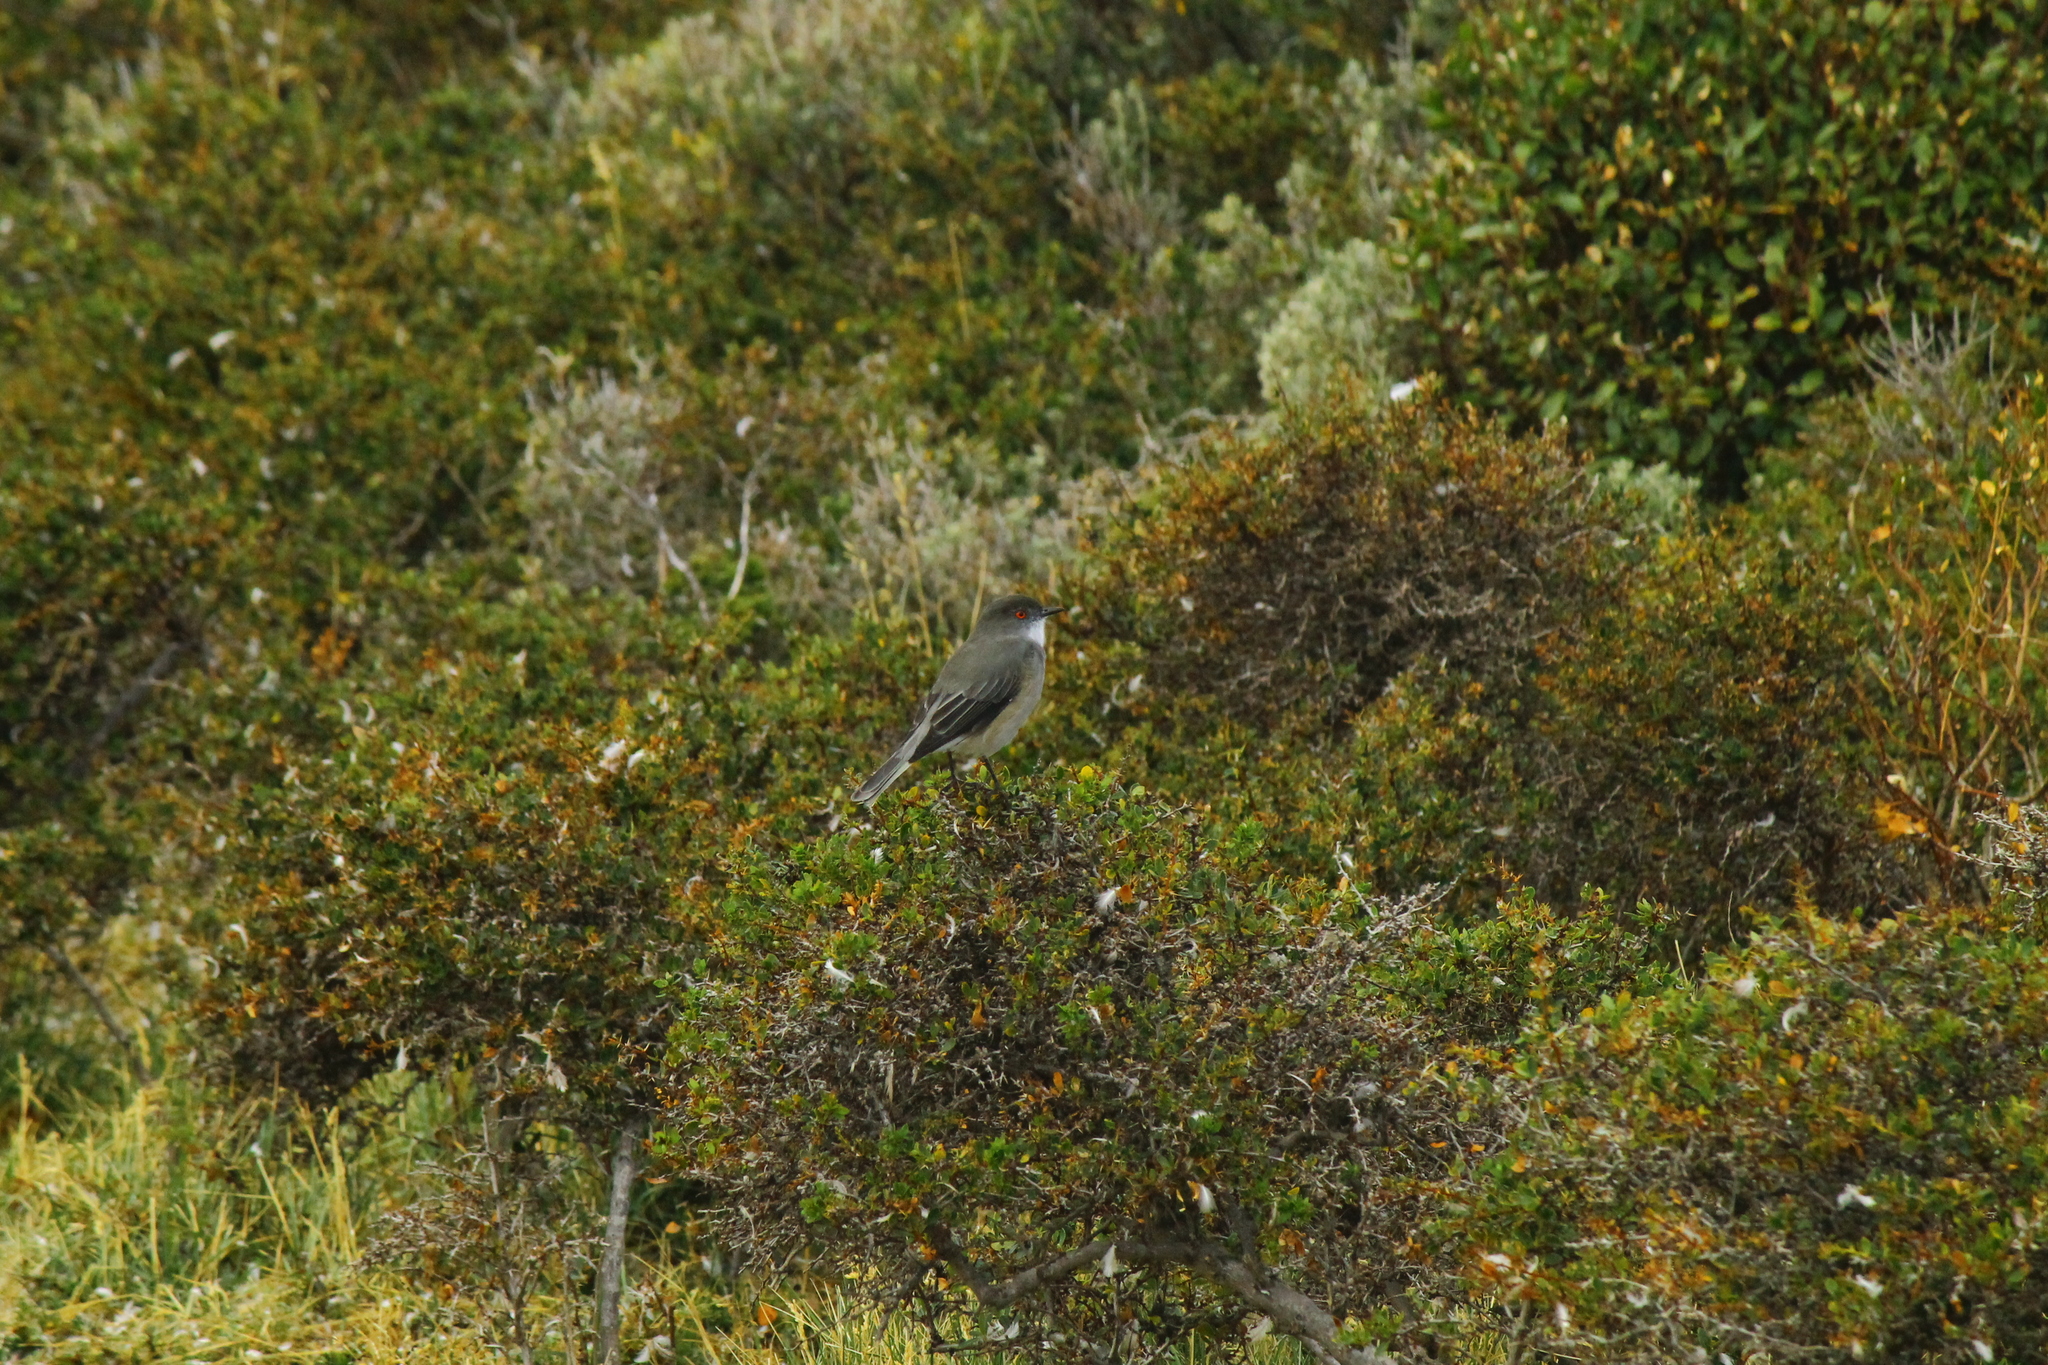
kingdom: Animalia
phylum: Chordata
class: Aves
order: Passeriformes
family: Tyrannidae
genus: Xolmis
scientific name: Xolmis pyrope
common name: Fire-eyed diucon
